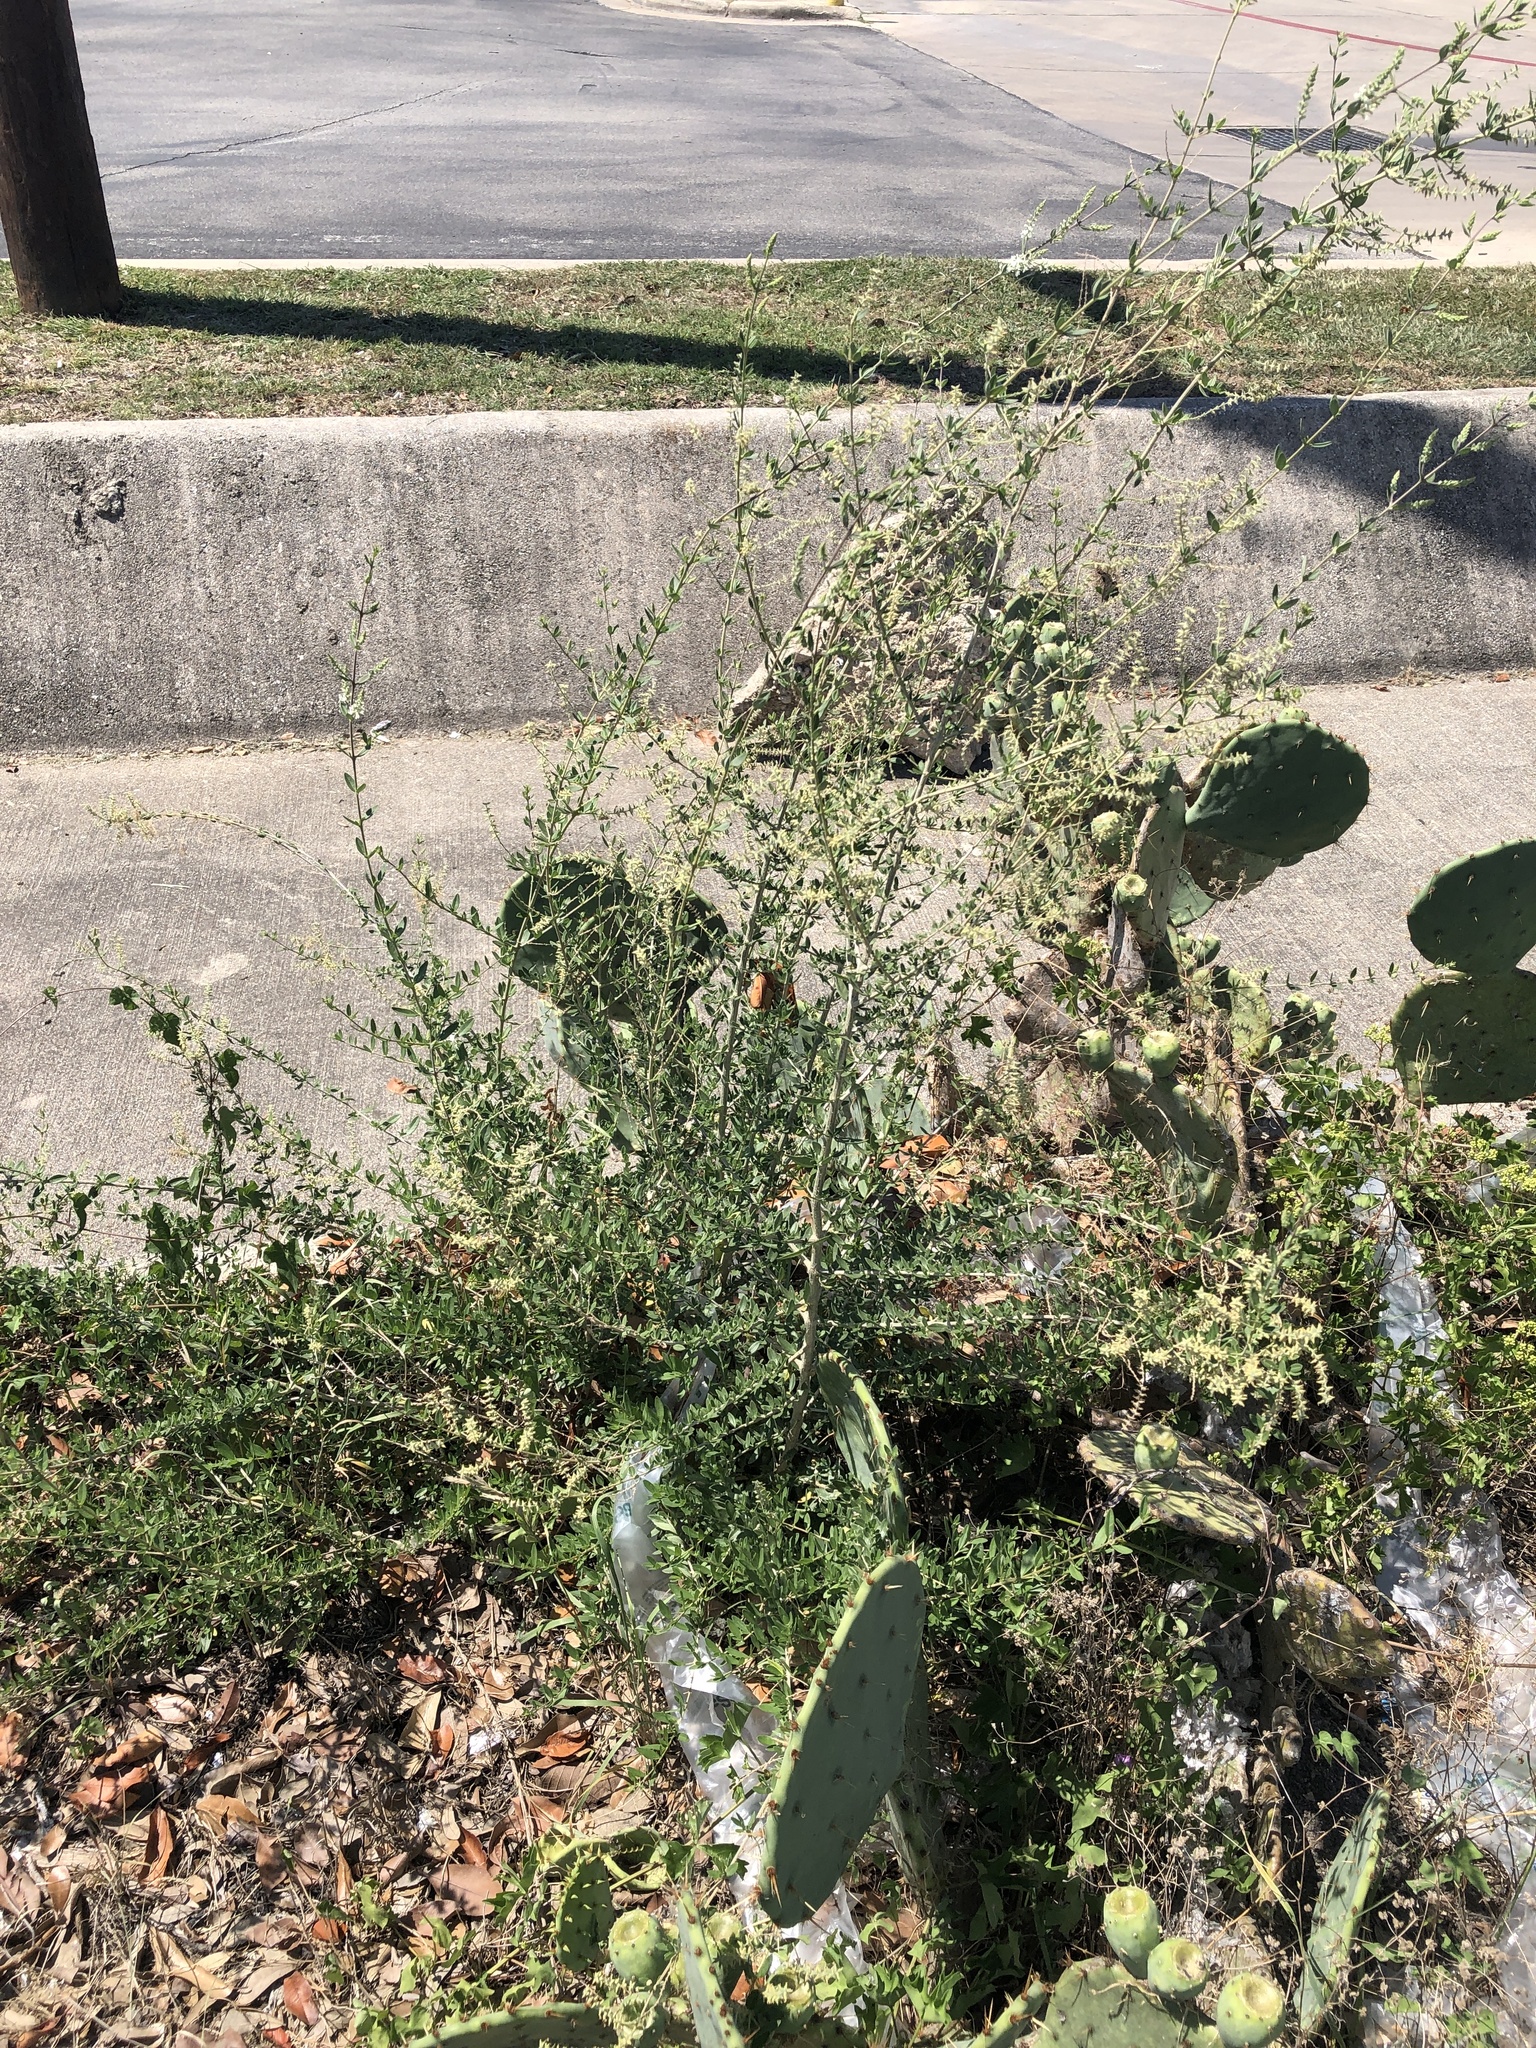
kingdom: Plantae
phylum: Tracheophyta
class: Magnoliopsida
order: Lamiales
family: Verbenaceae
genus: Aloysia
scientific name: Aloysia gratissima
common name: Common bee-brush
